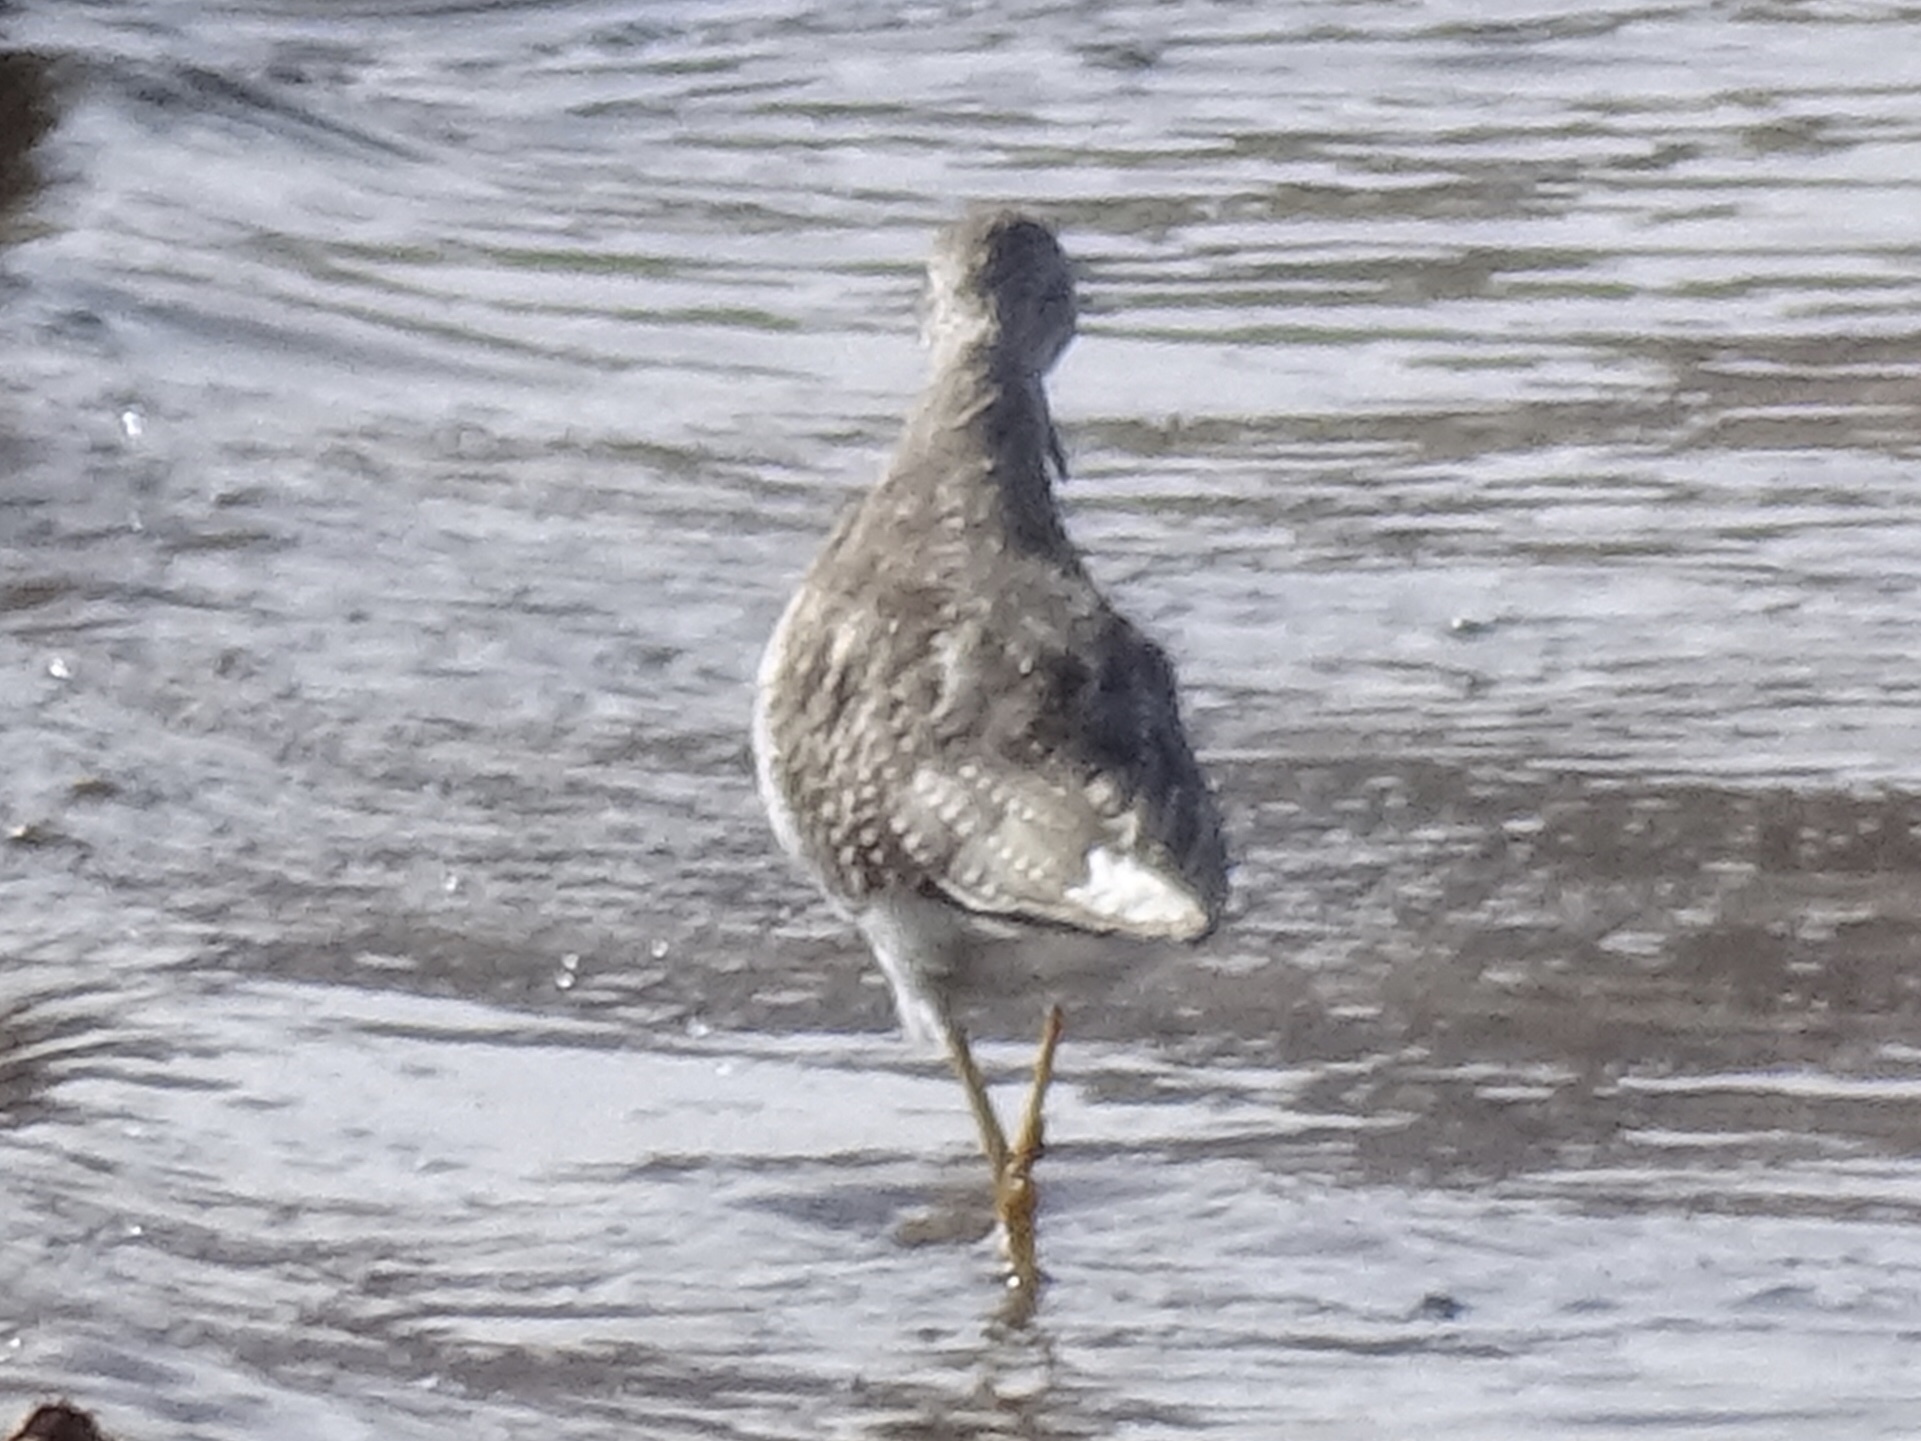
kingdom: Animalia
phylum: Chordata
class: Aves
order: Charadriiformes
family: Scolopacidae
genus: Tringa
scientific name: Tringa melanoleuca
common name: Greater yellowlegs
